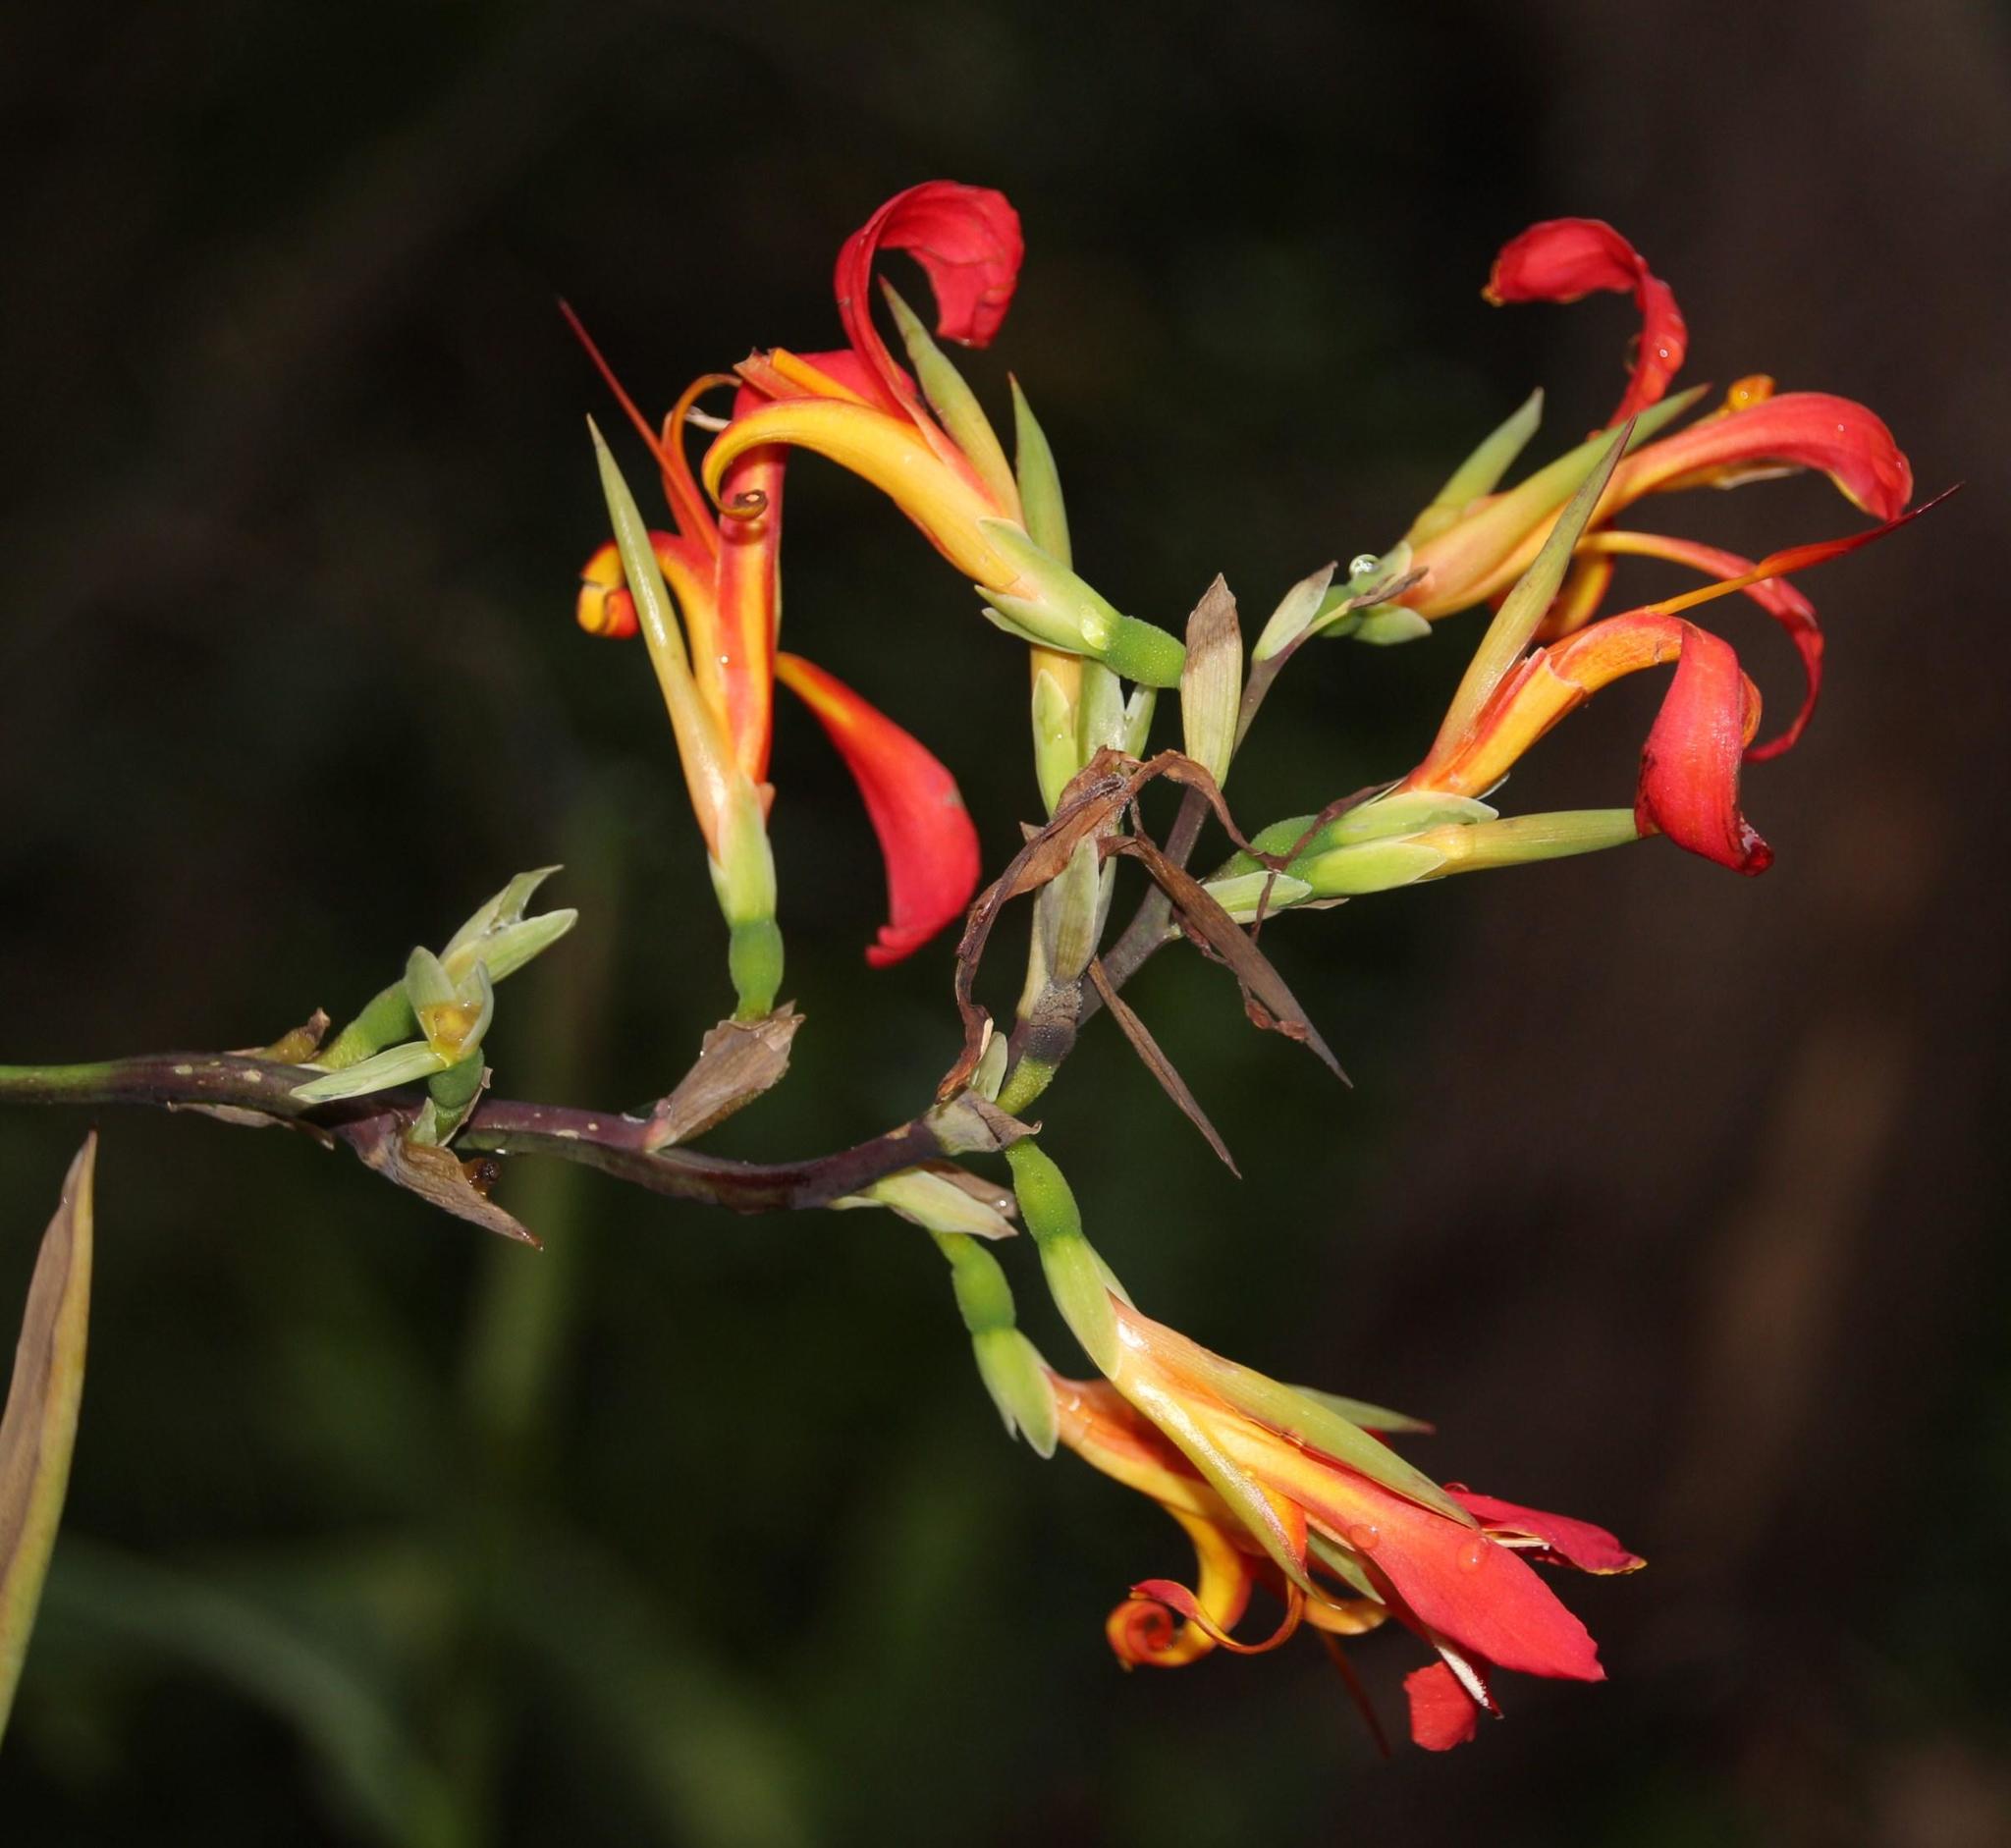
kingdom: Plantae
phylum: Tracheophyta
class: Liliopsida
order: Zingiberales
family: Cannaceae
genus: Canna
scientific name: Canna indica
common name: Indian shot
